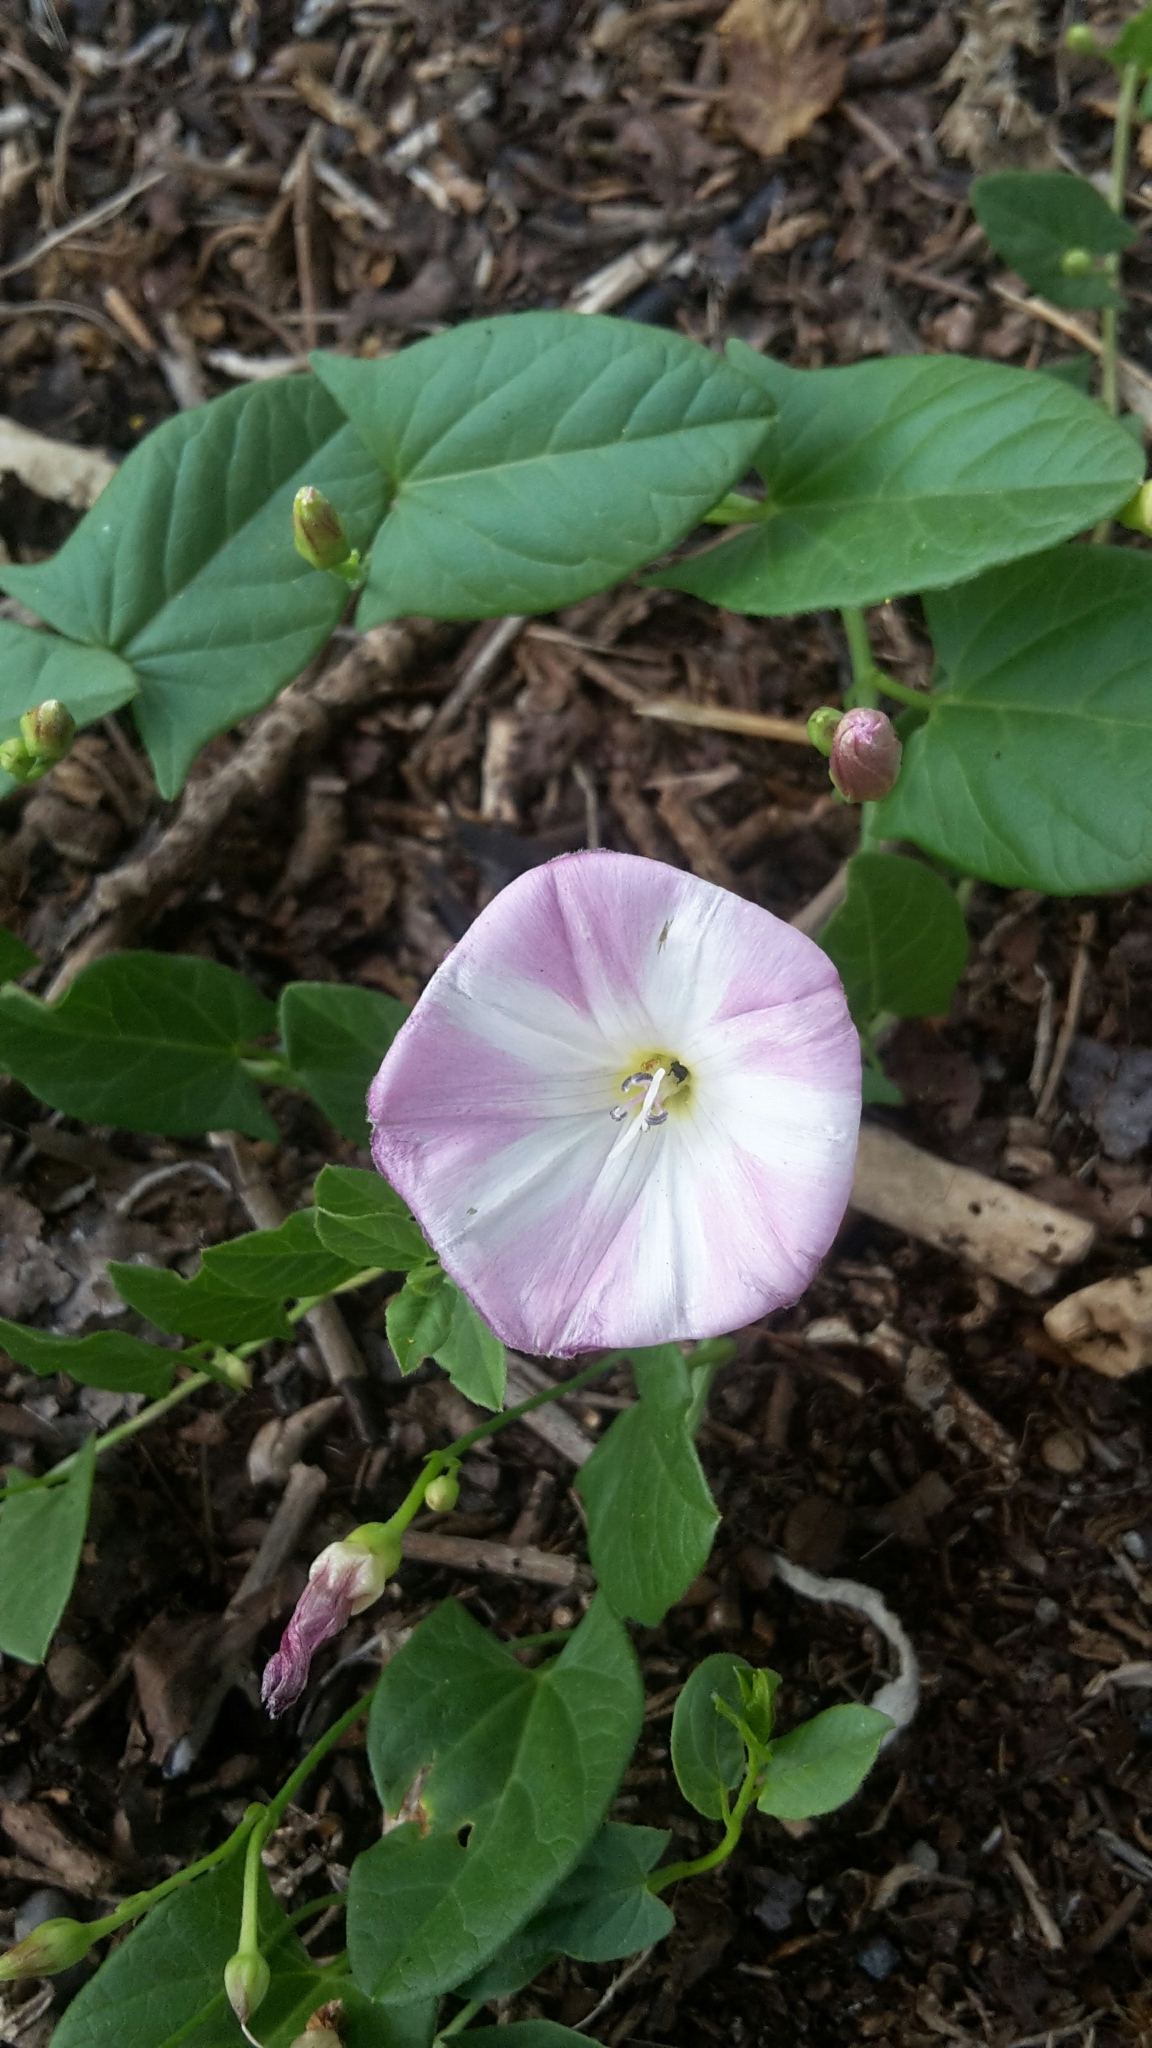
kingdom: Plantae
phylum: Tracheophyta
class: Magnoliopsida
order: Solanales
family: Convolvulaceae
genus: Convolvulus
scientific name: Convolvulus arvensis
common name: Field bindweed
